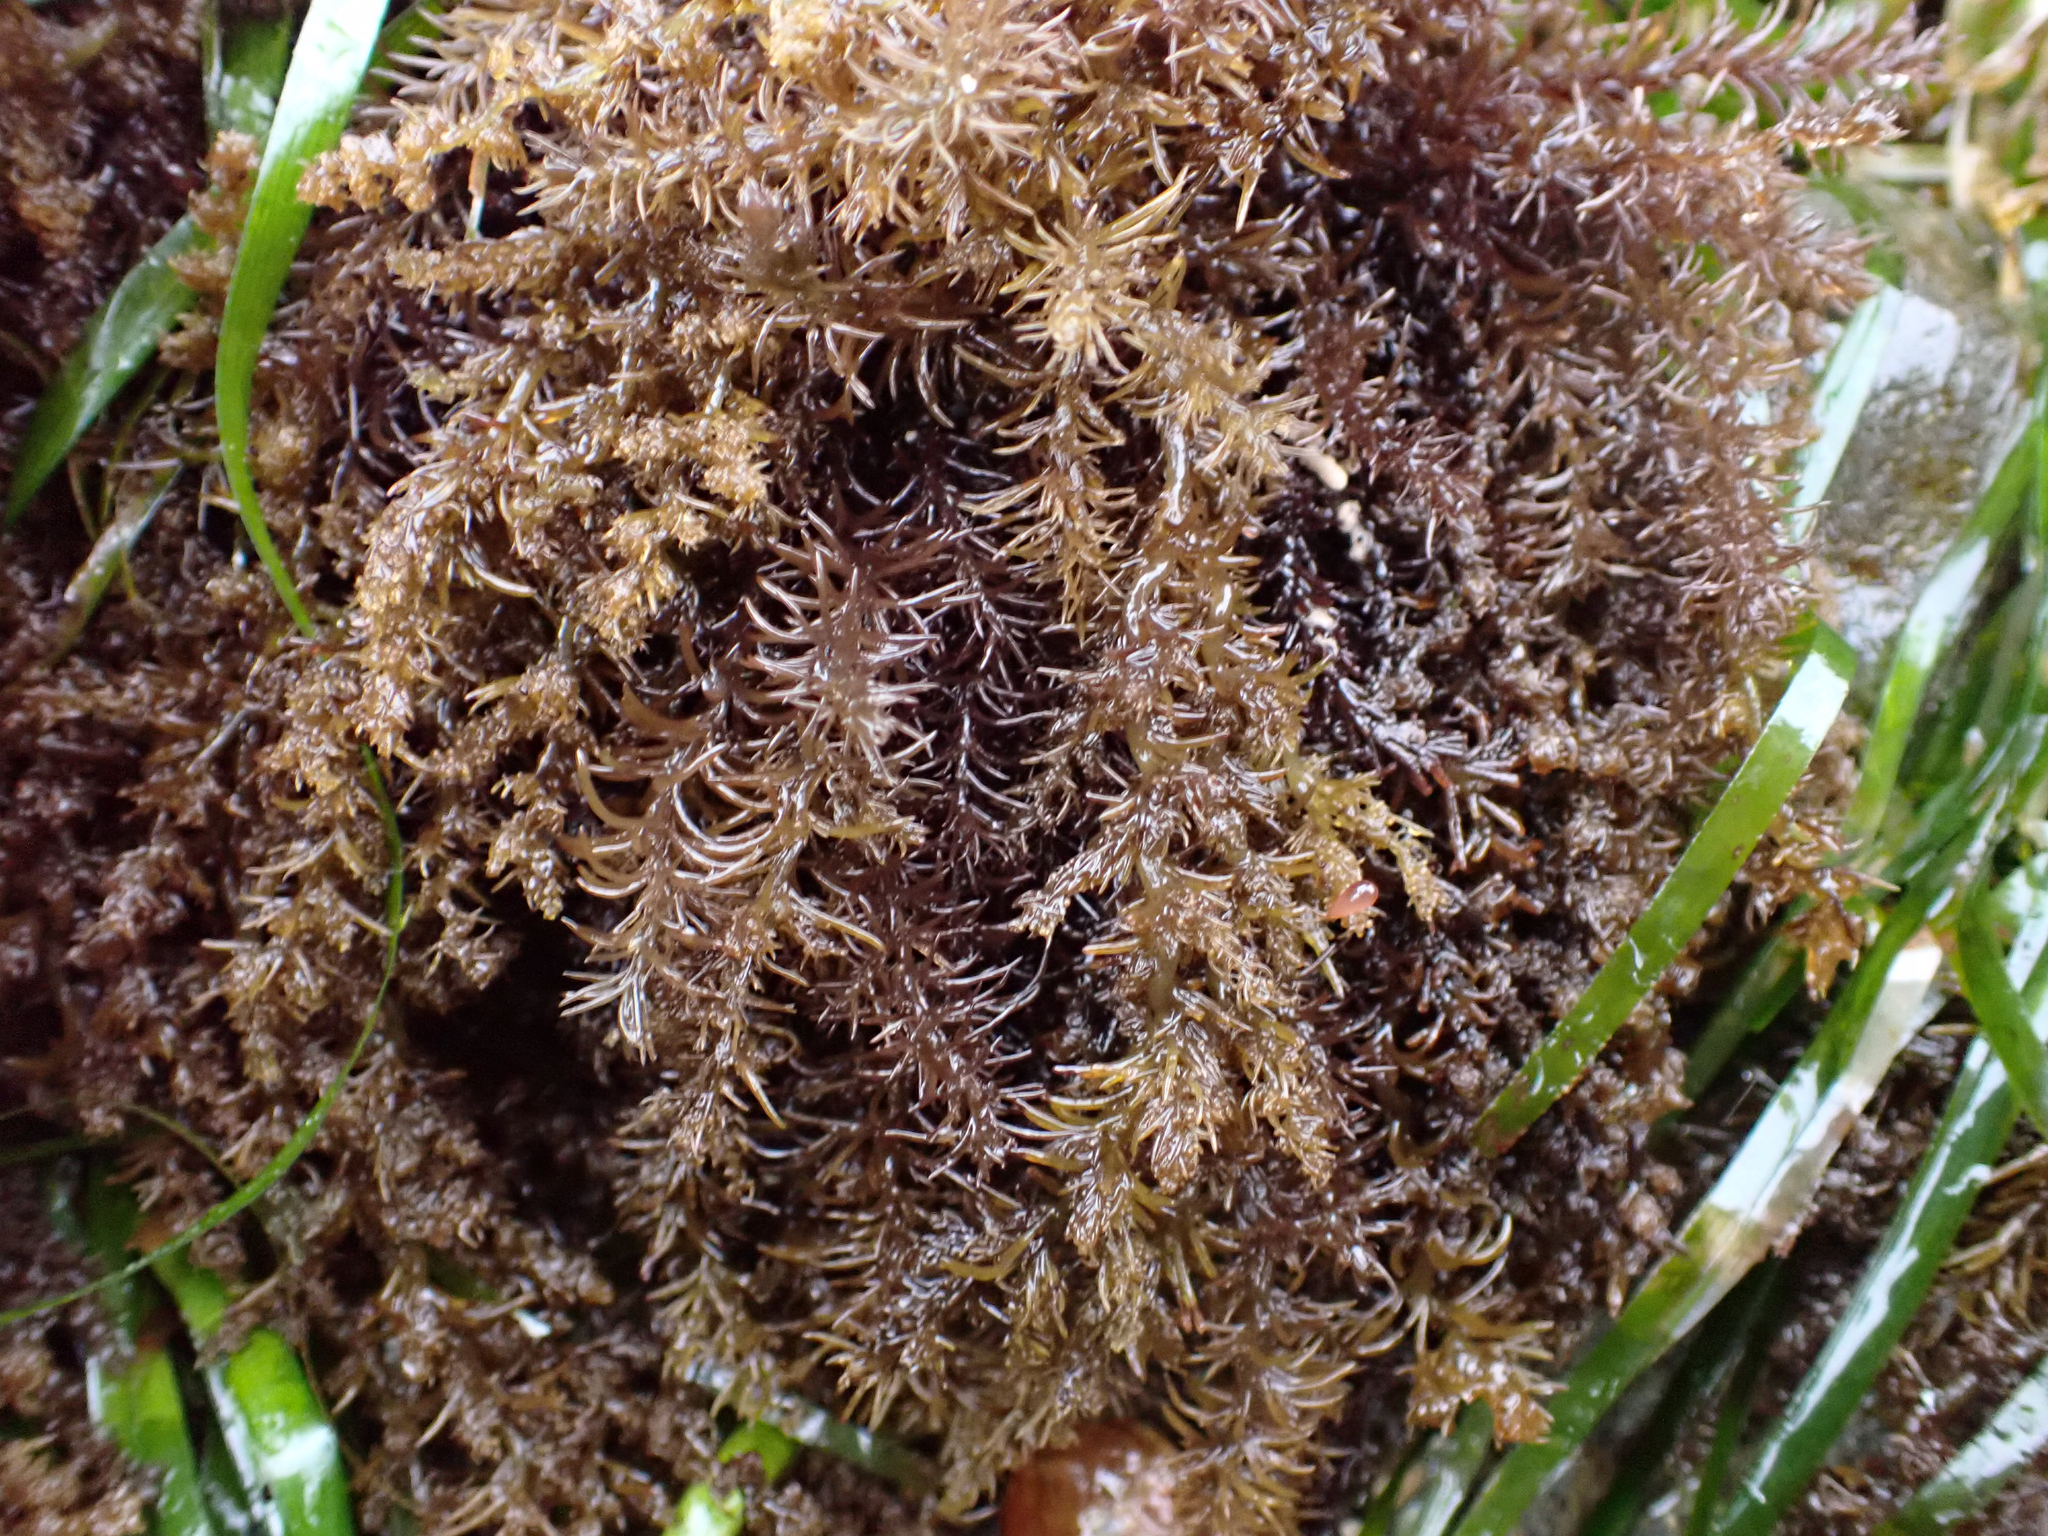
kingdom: Plantae
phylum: Rhodophyta
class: Florideophyceae
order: Ceramiales
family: Rhodomelaceae
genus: Neorhodomela
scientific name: Neorhodomela larix
